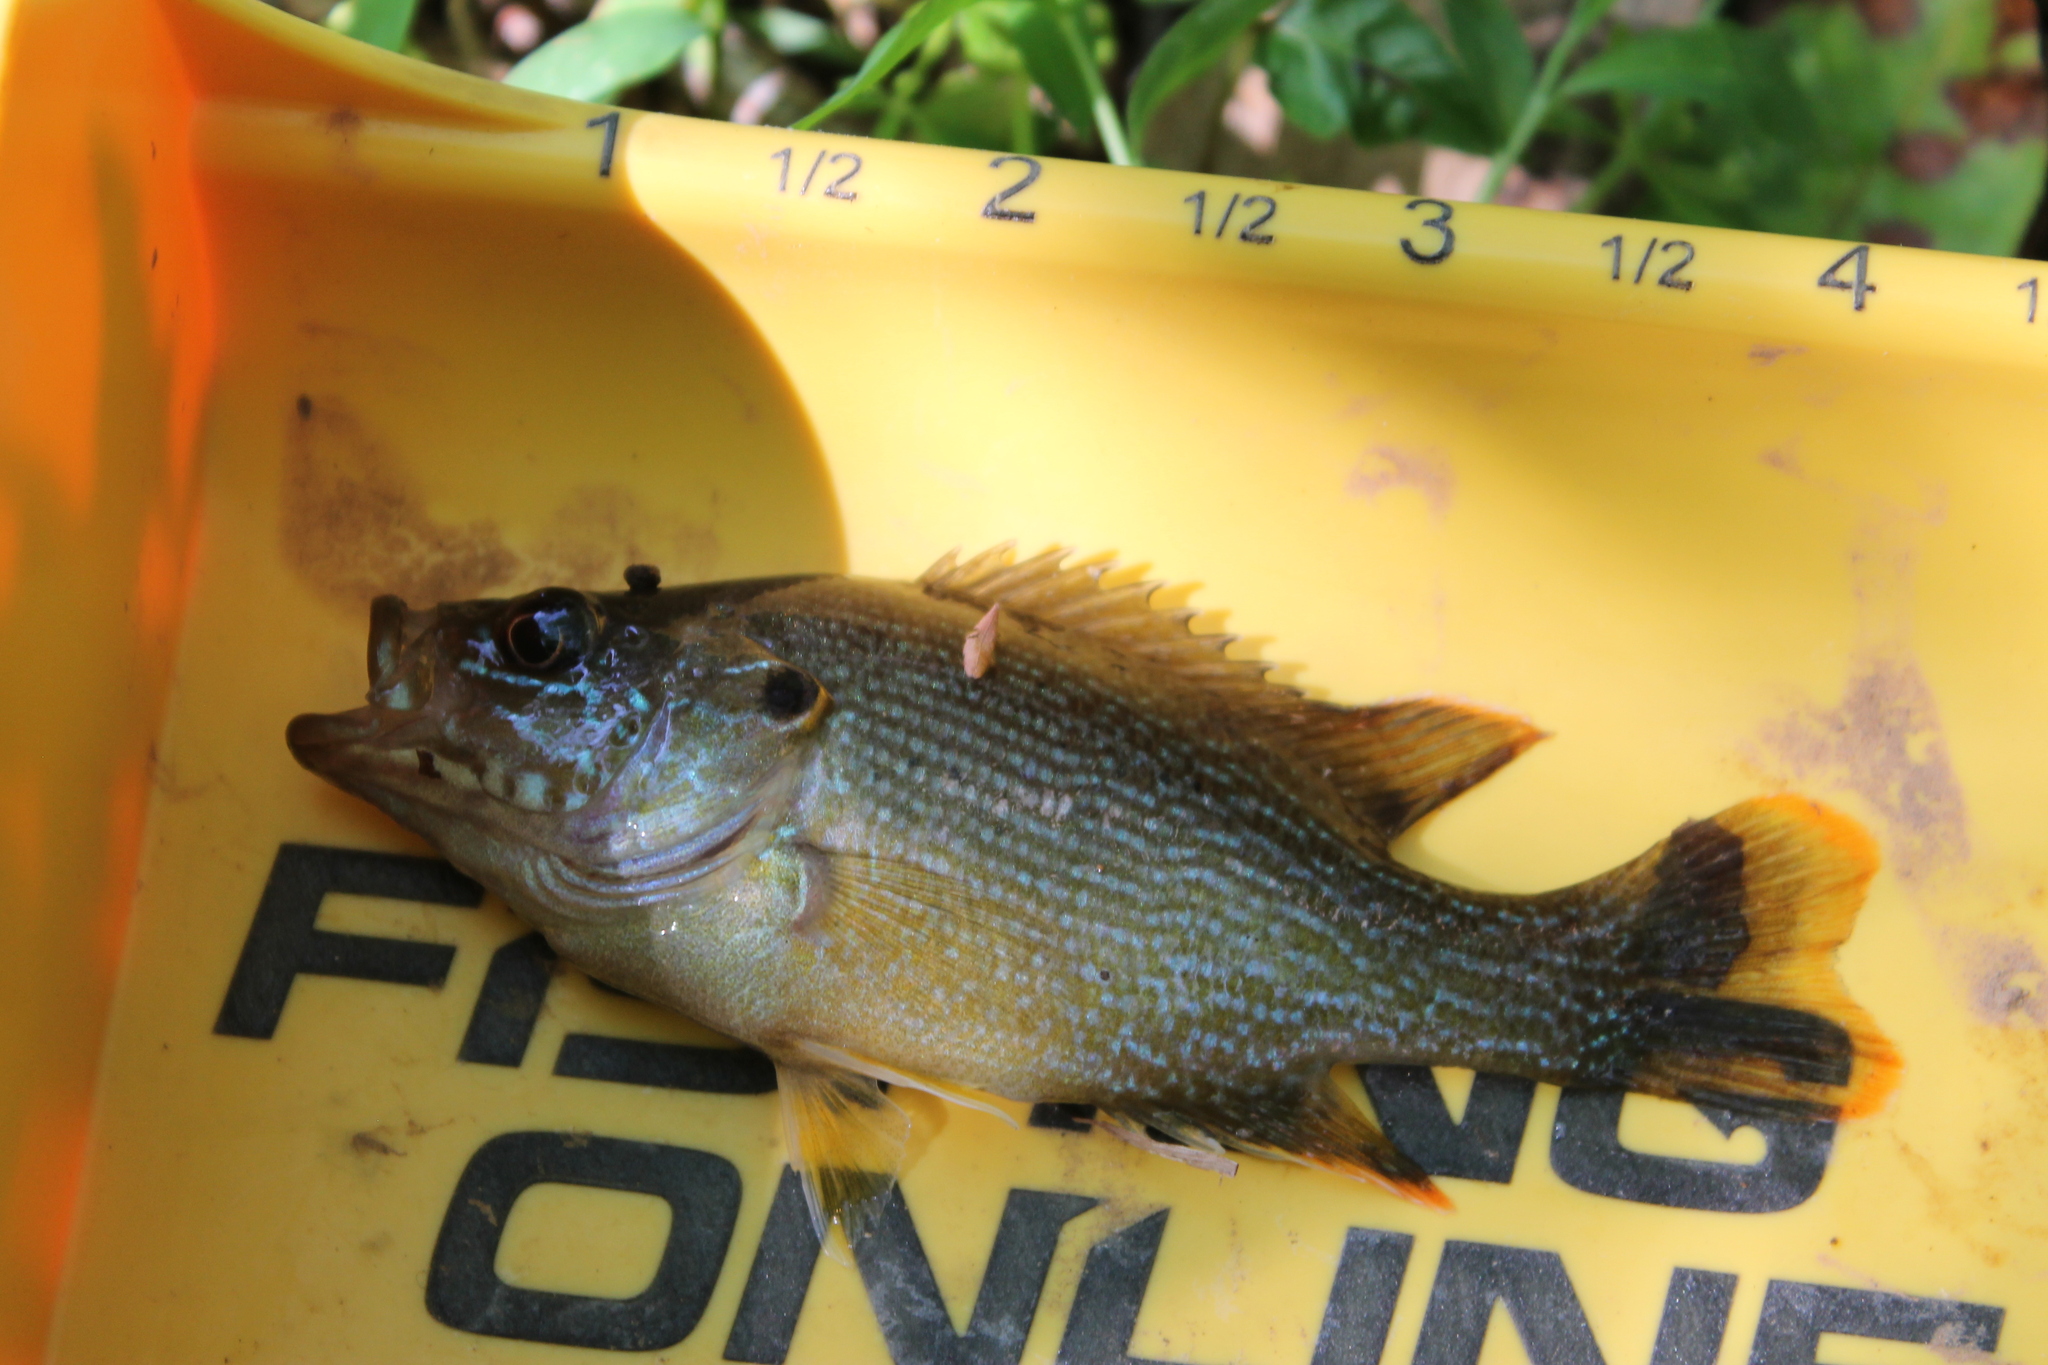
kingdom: Animalia
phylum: Chordata
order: Perciformes
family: Centrarchidae
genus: Lepomis
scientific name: Lepomis cyanellus
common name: Green sunfish
